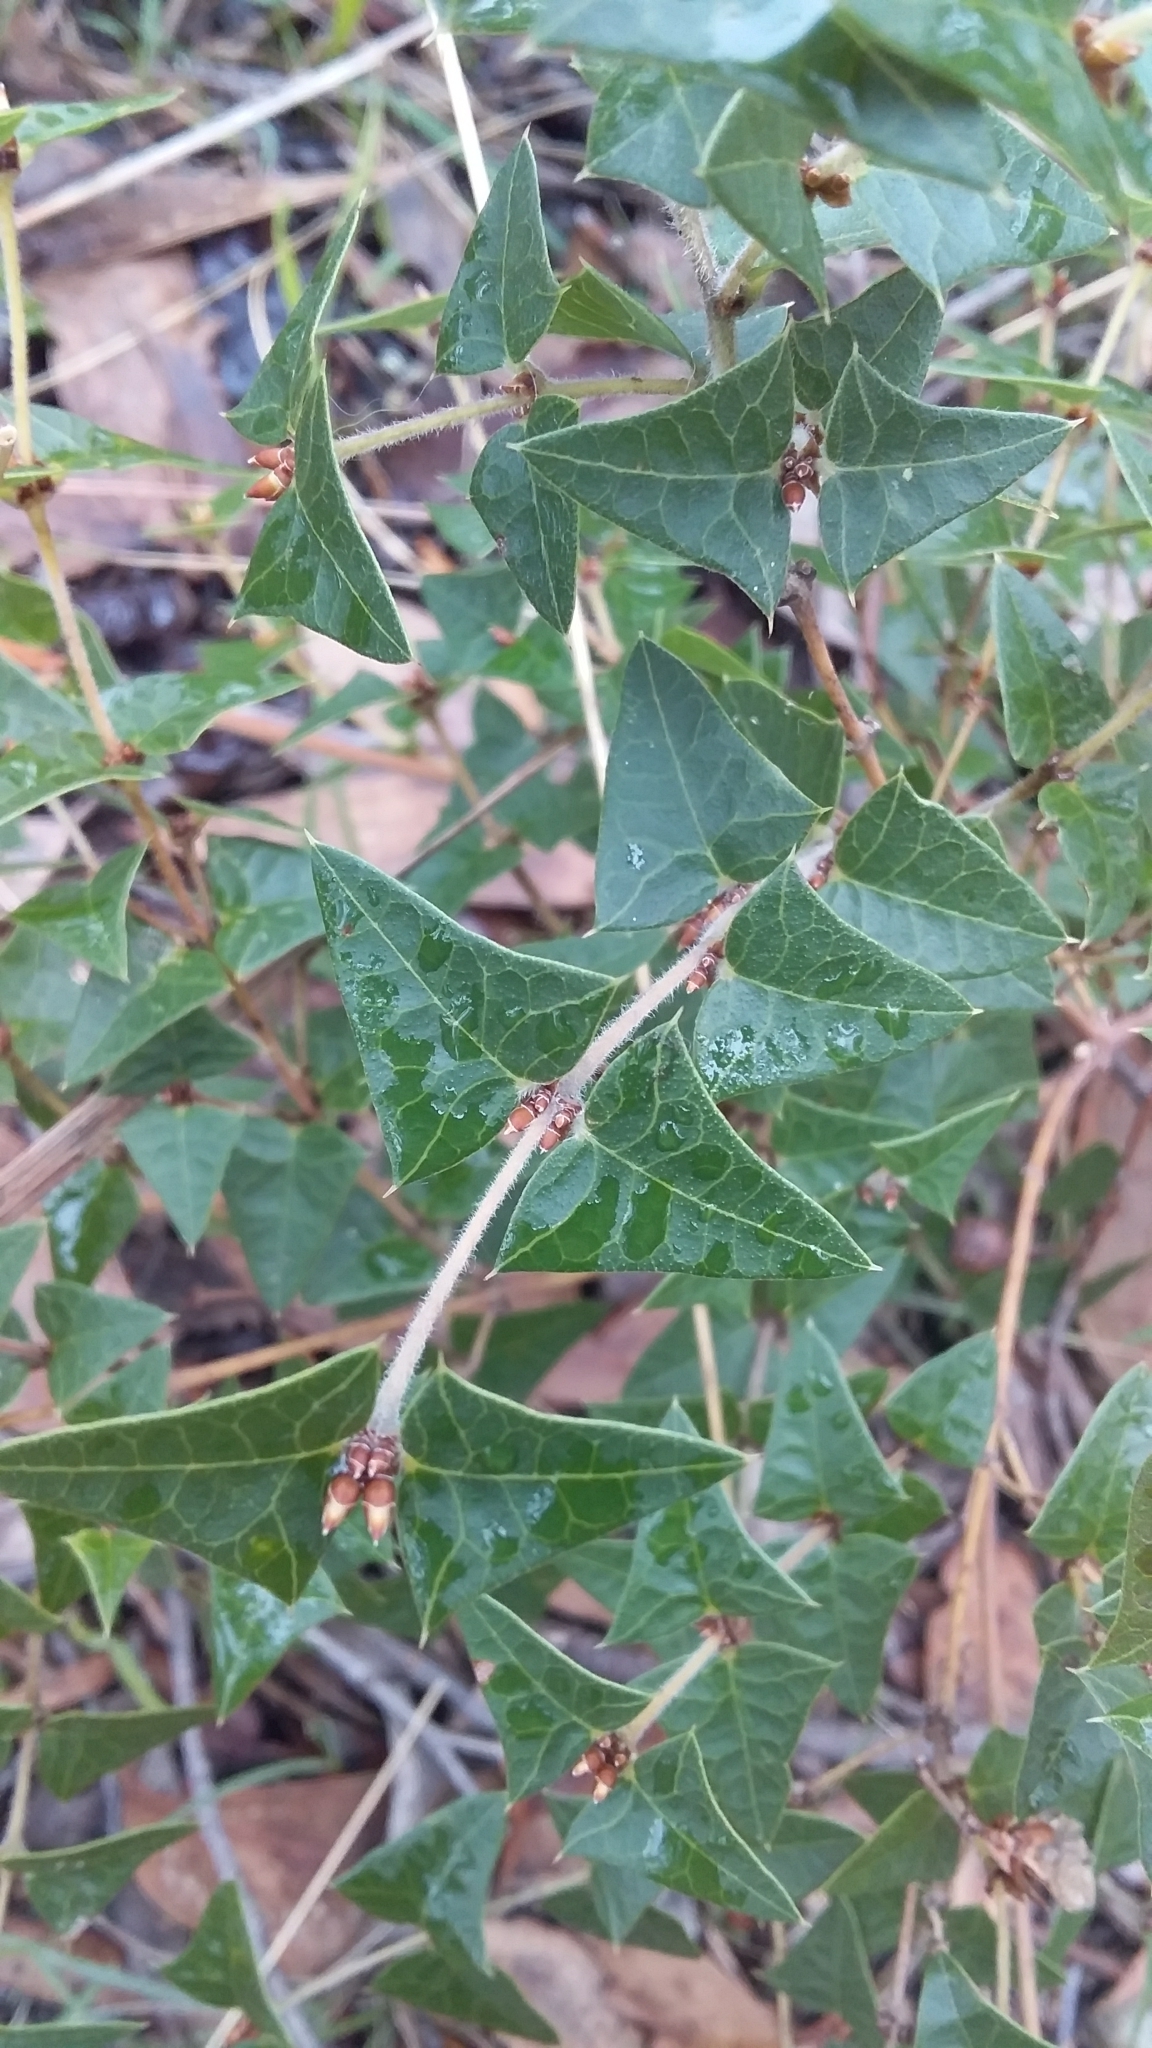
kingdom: Plantae
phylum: Tracheophyta
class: Magnoliopsida
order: Fabales
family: Fabaceae
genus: Platylobium
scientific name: Platylobium obtusangulum
